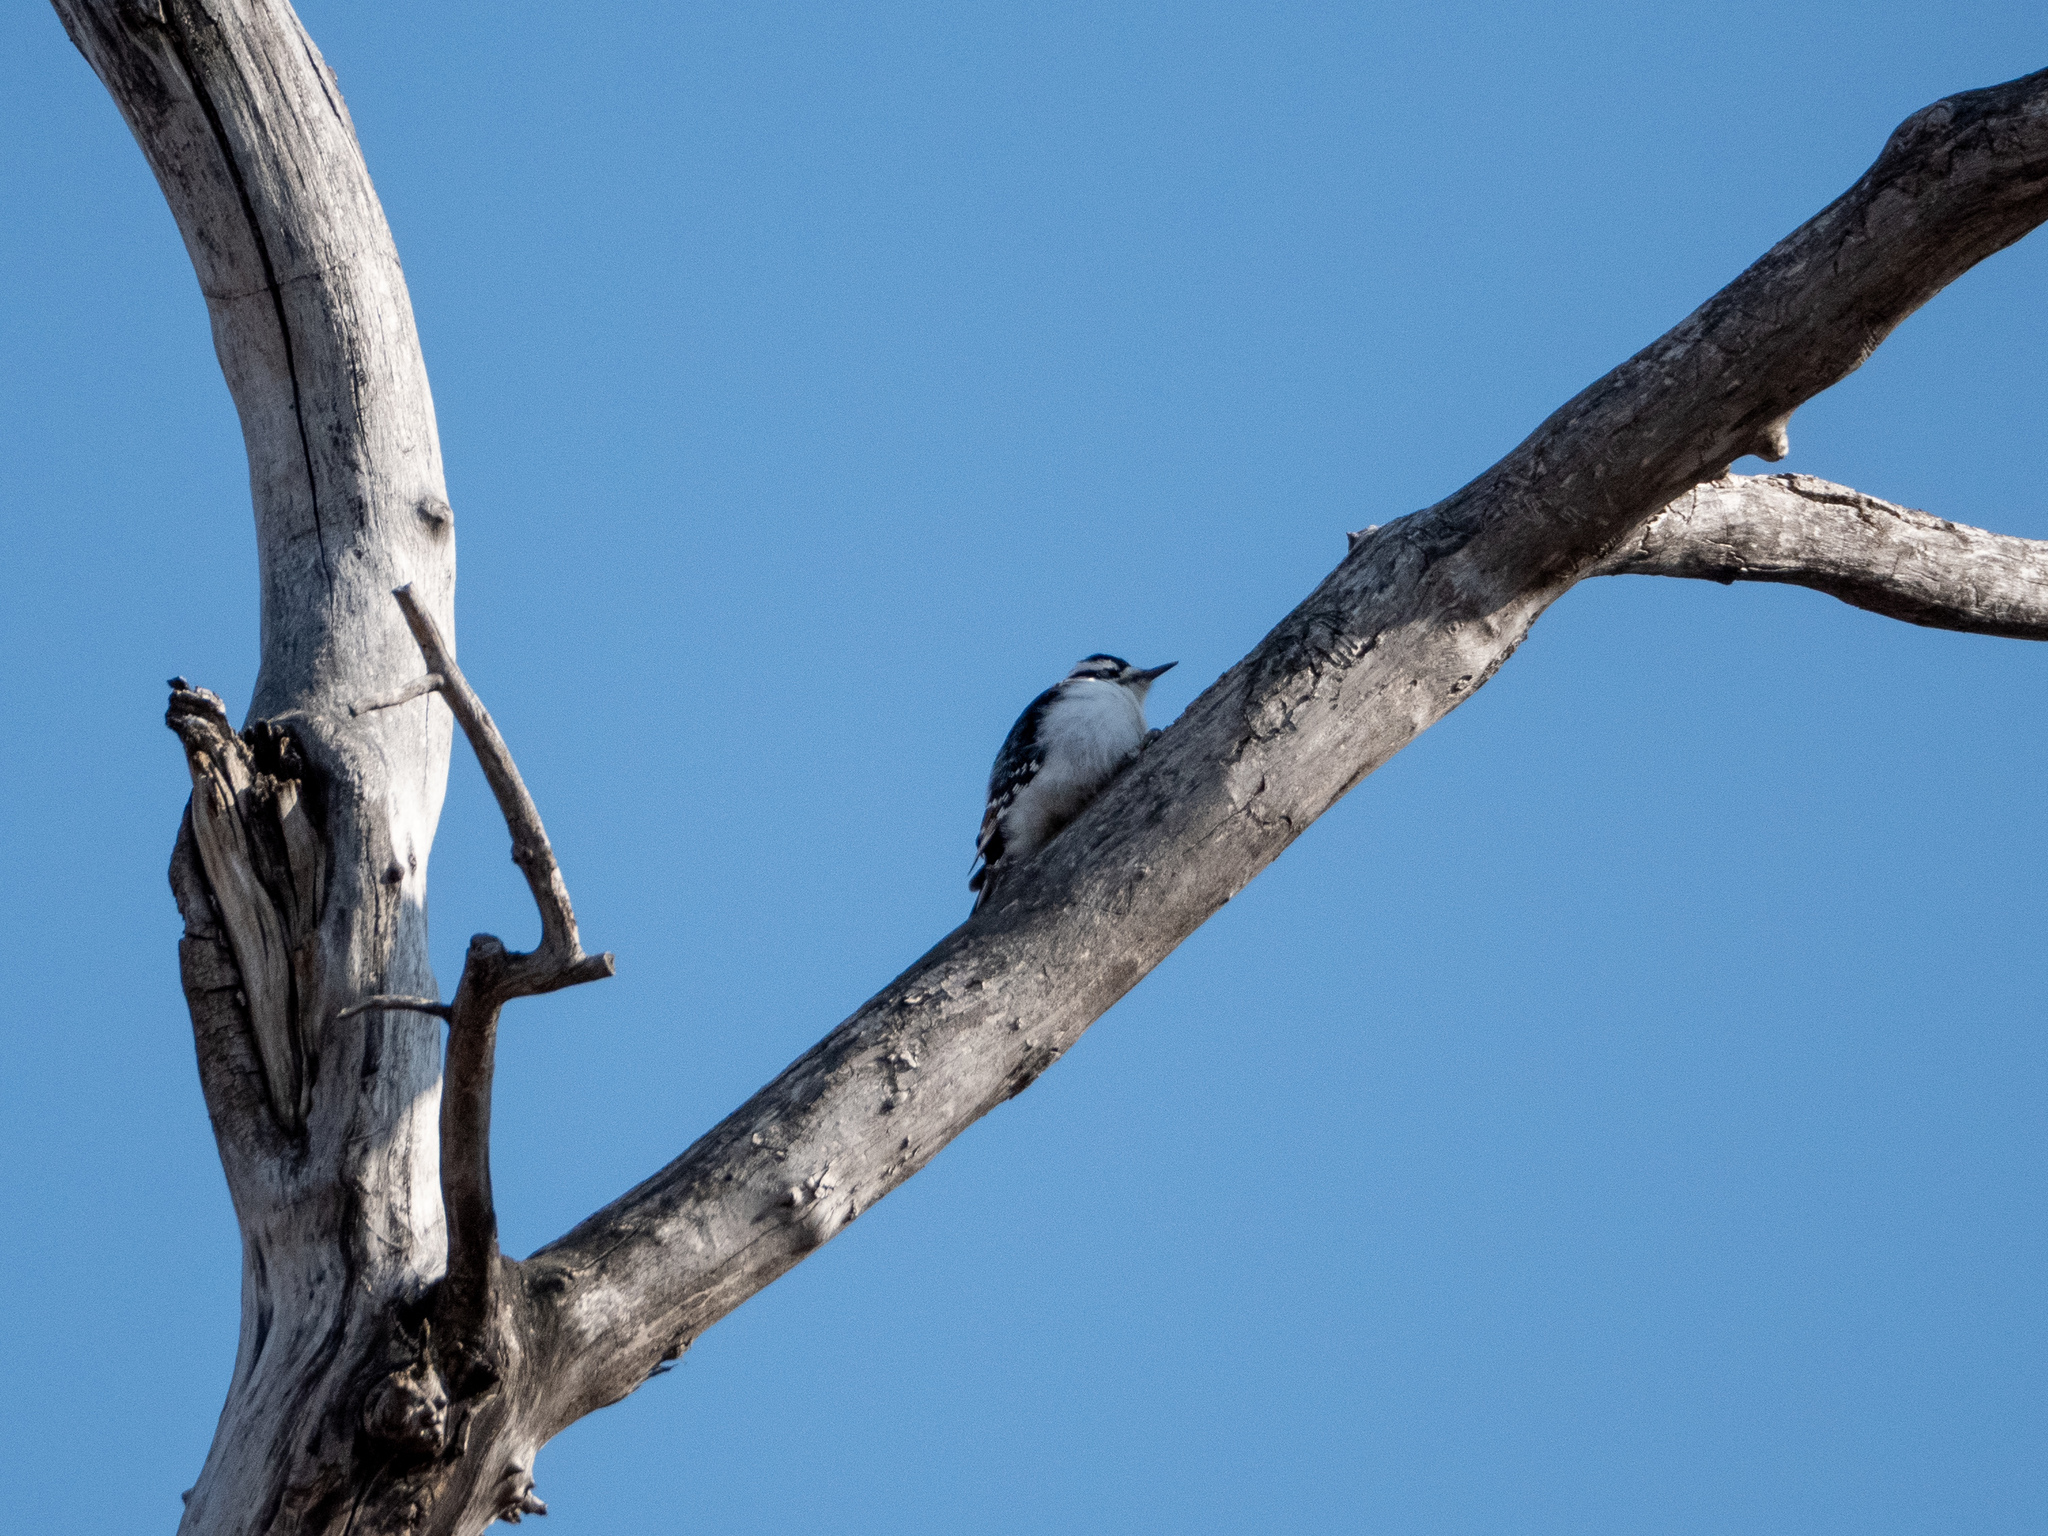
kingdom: Animalia
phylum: Chordata
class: Aves
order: Piciformes
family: Picidae
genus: Dryobates
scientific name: Dryobates pubescens
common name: Downy woodpecker
